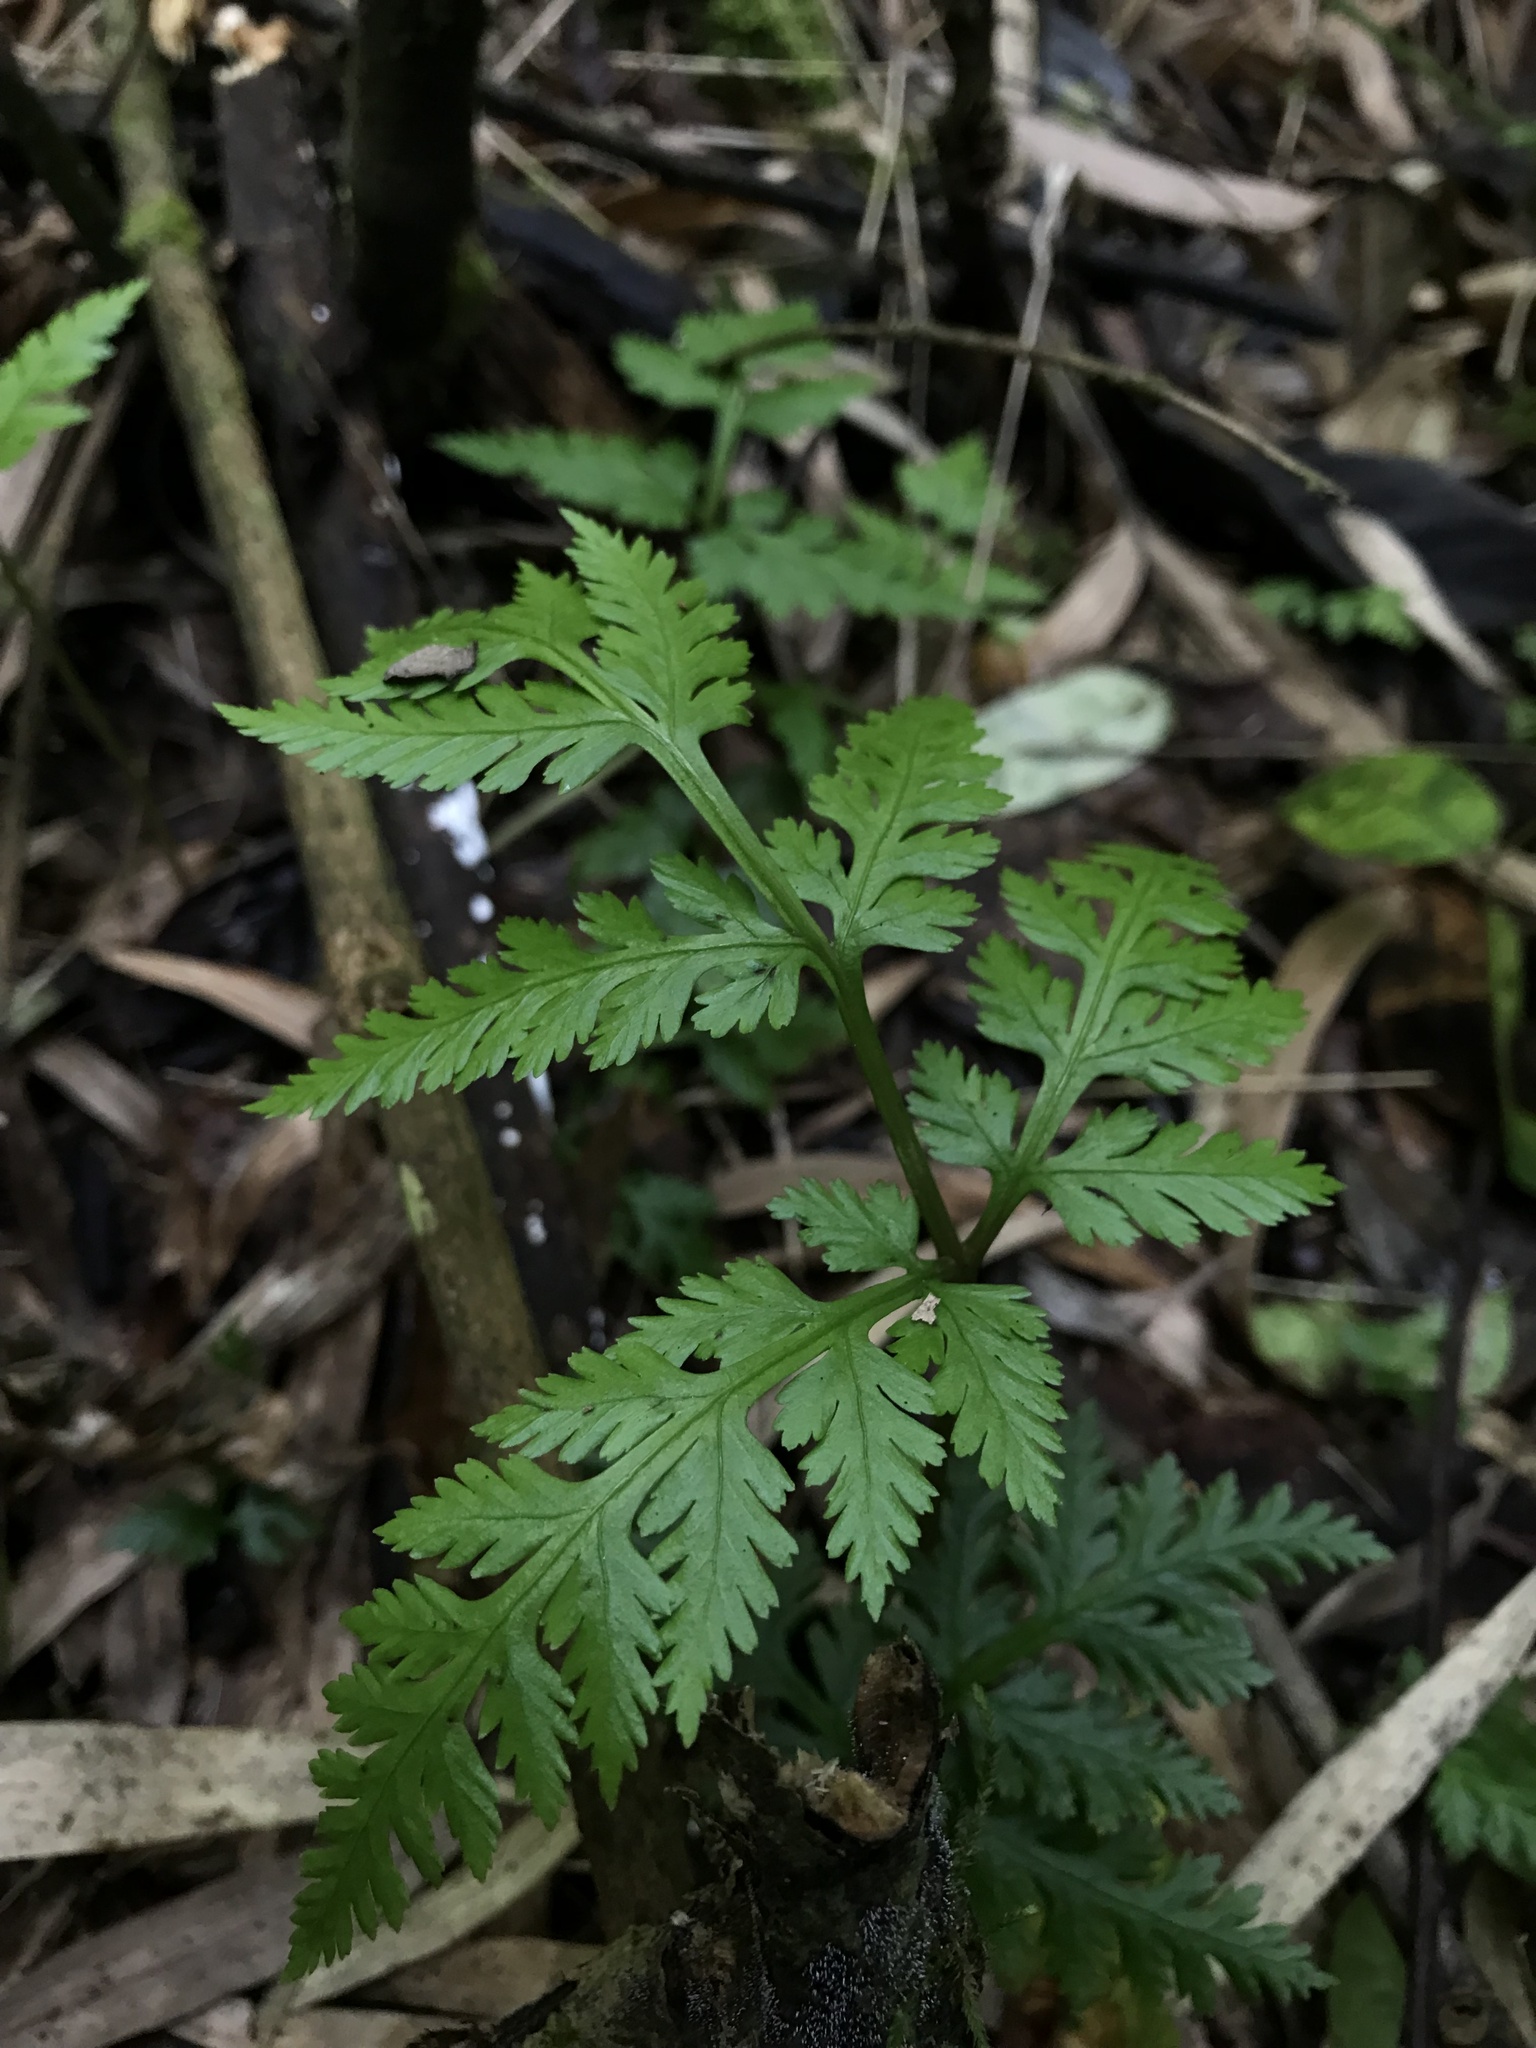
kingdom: Plantae
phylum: Tracheophyta
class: Polypodiopsida
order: Ophioglossales
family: Ophioglossaceae
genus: Botrypus
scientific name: Botrypus virginianus
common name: Common grapefern
